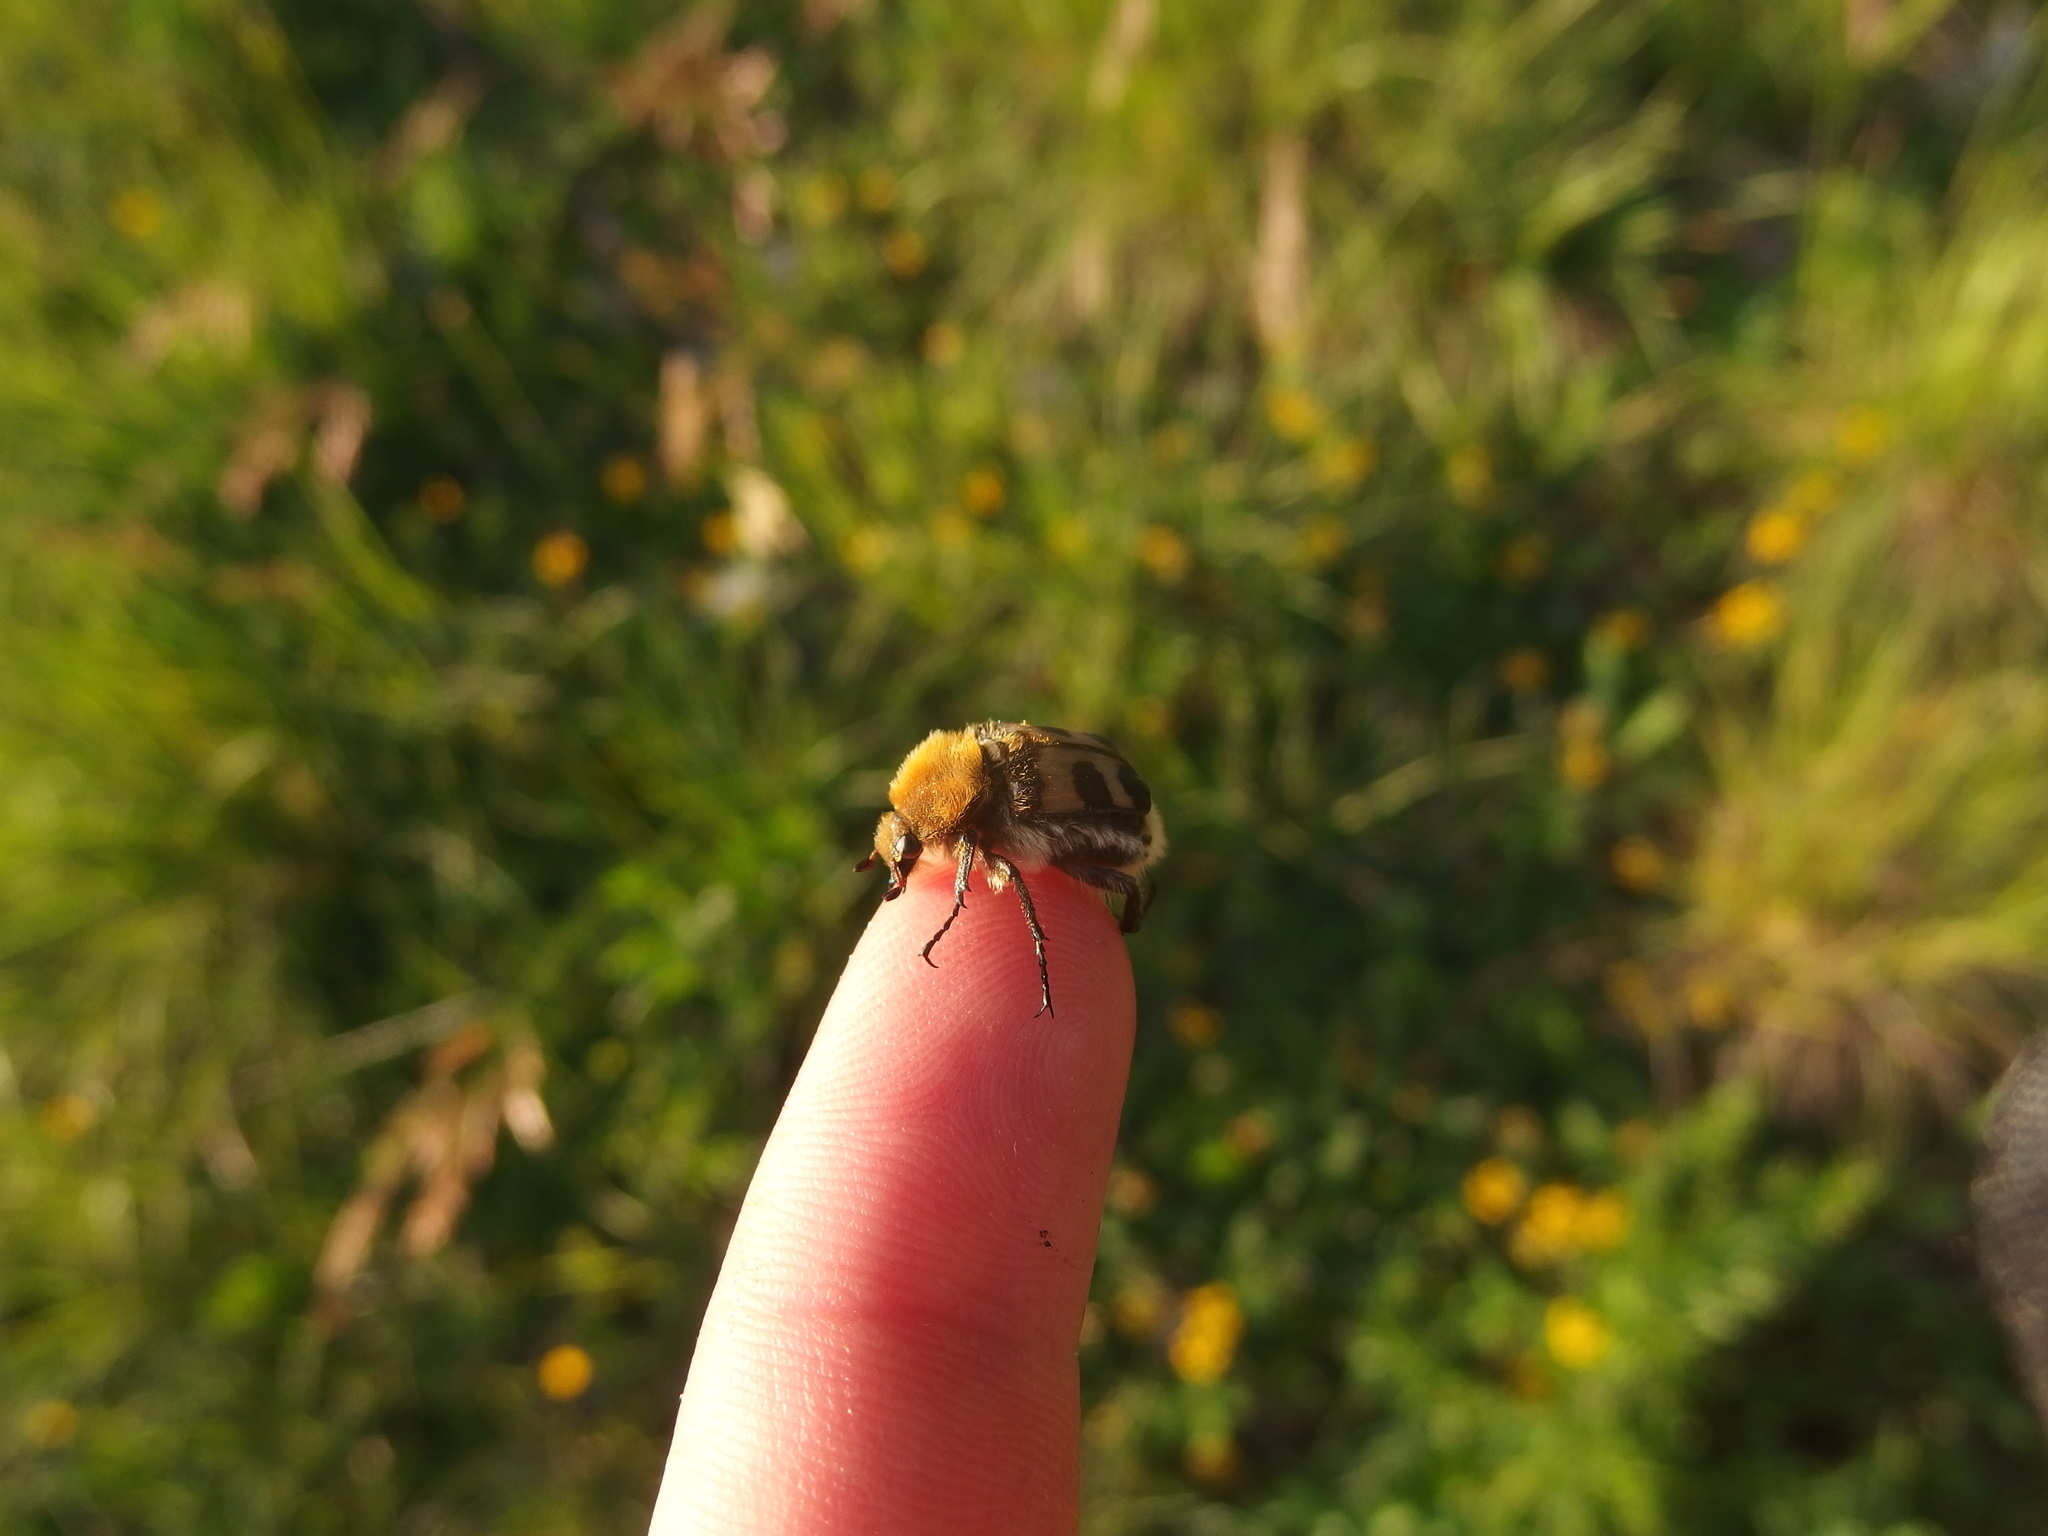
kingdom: Animalia
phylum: Arthropoda
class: Insecta
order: Coleoptera
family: Scarabaeidae
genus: Trichius
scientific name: Trichius fasciatus
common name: Bee beetle
